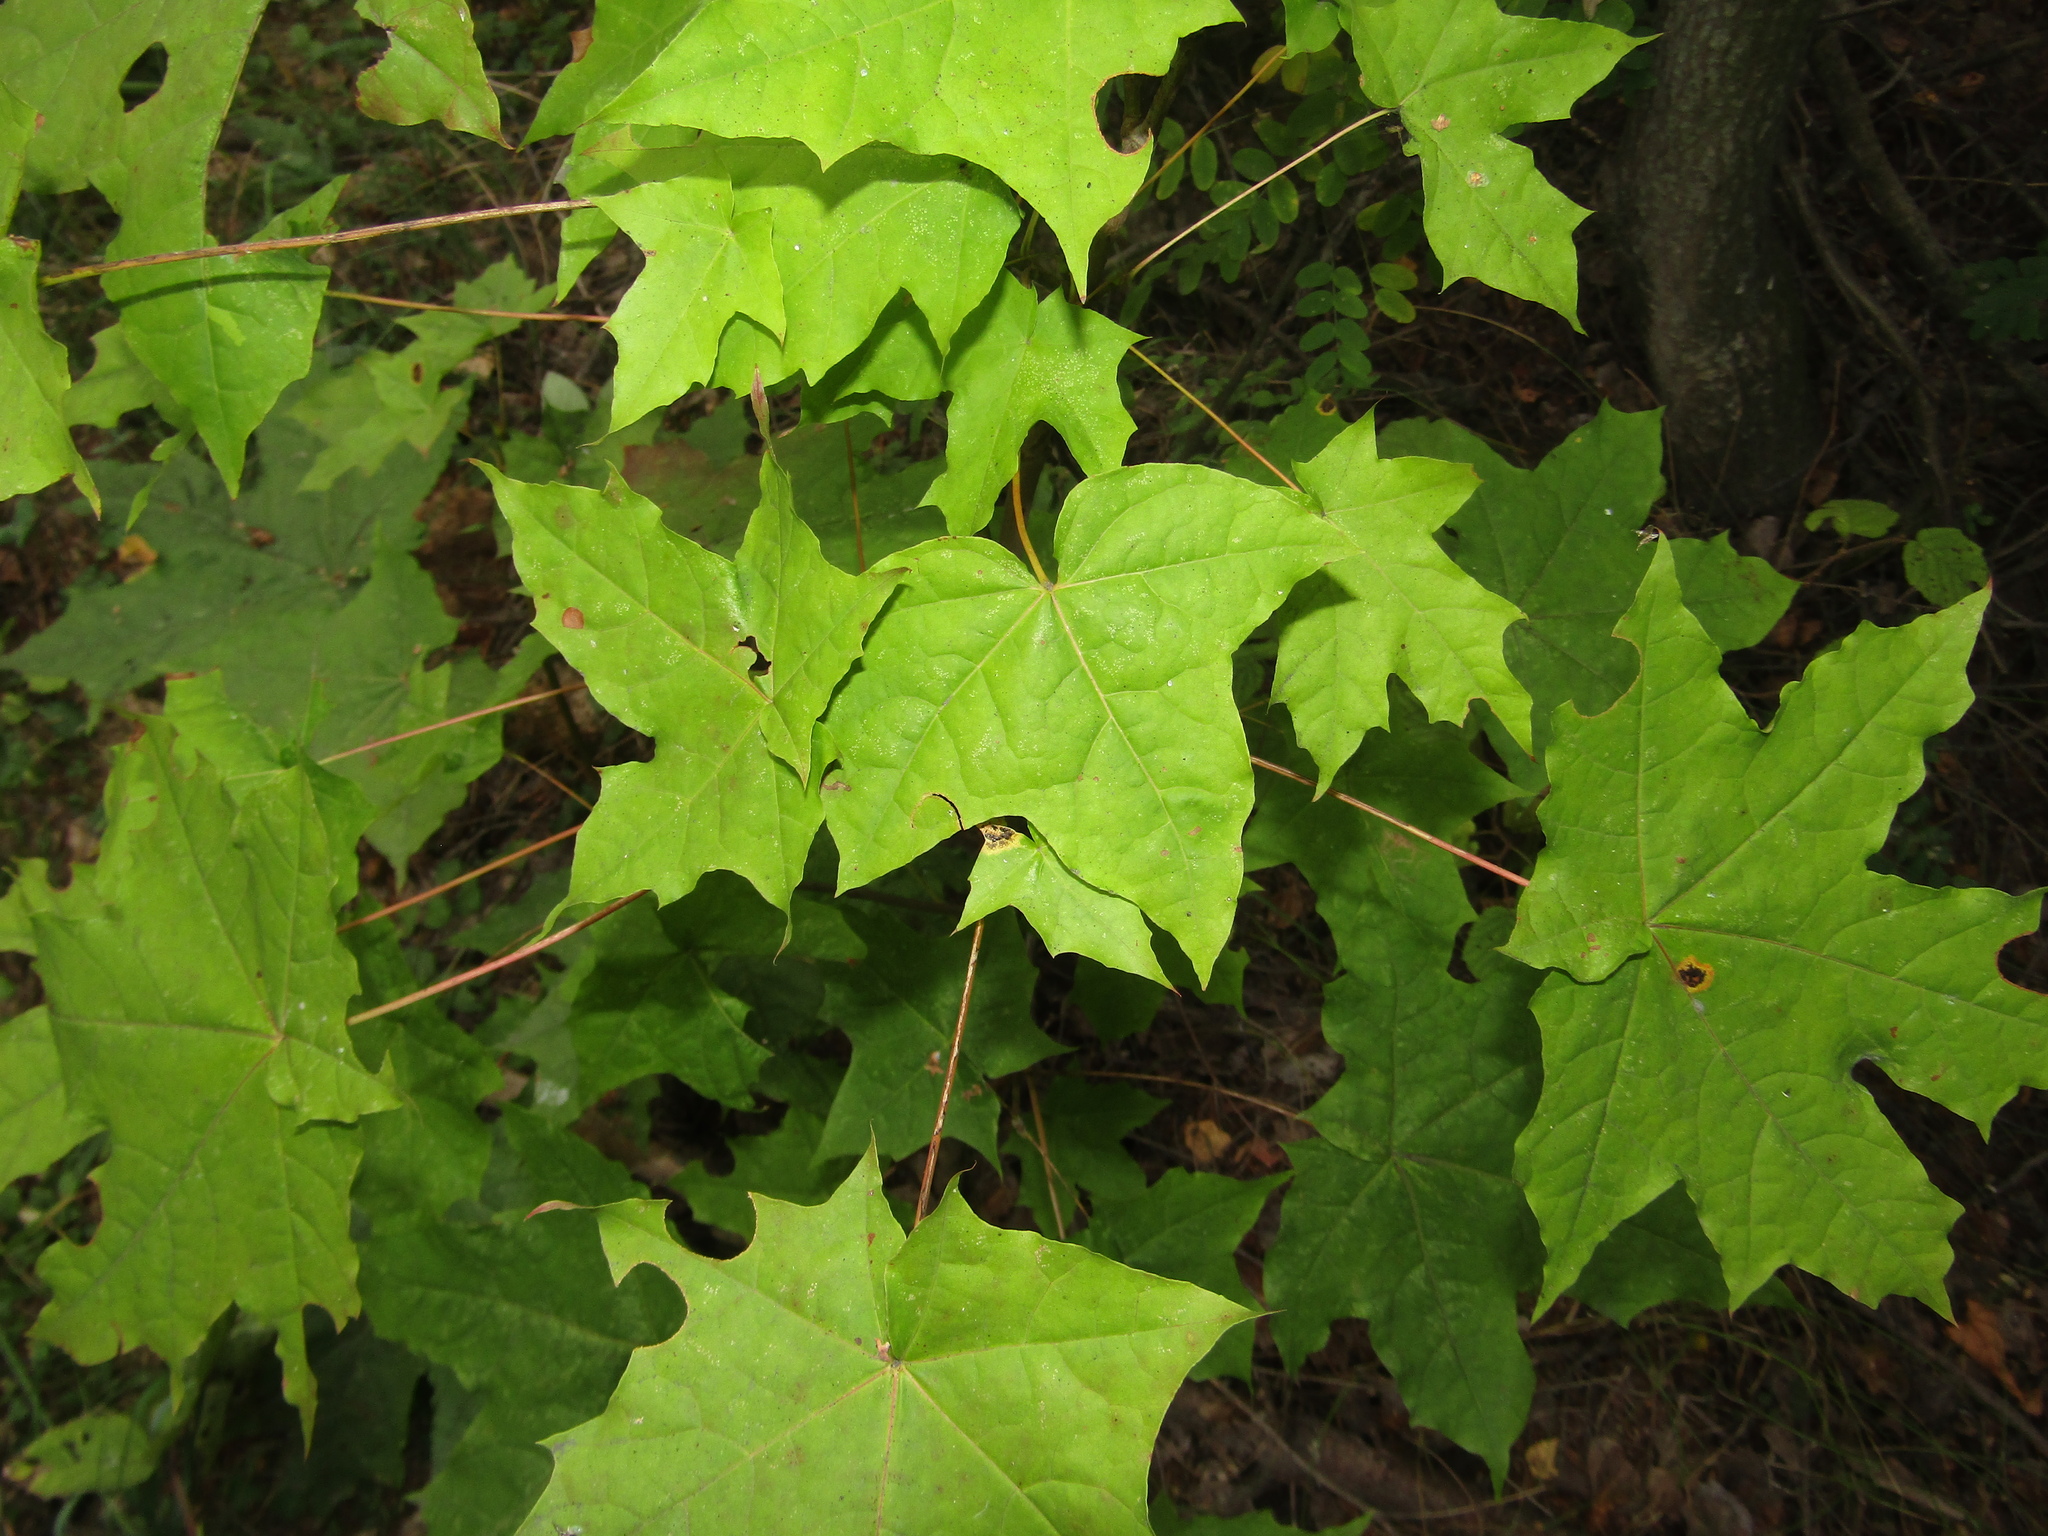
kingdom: Plantae
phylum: Tracheophyta
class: Magnoliopsida
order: Sapindales
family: Sapindaceae
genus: Acer
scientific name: Acer platanoides
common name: Norway maple
